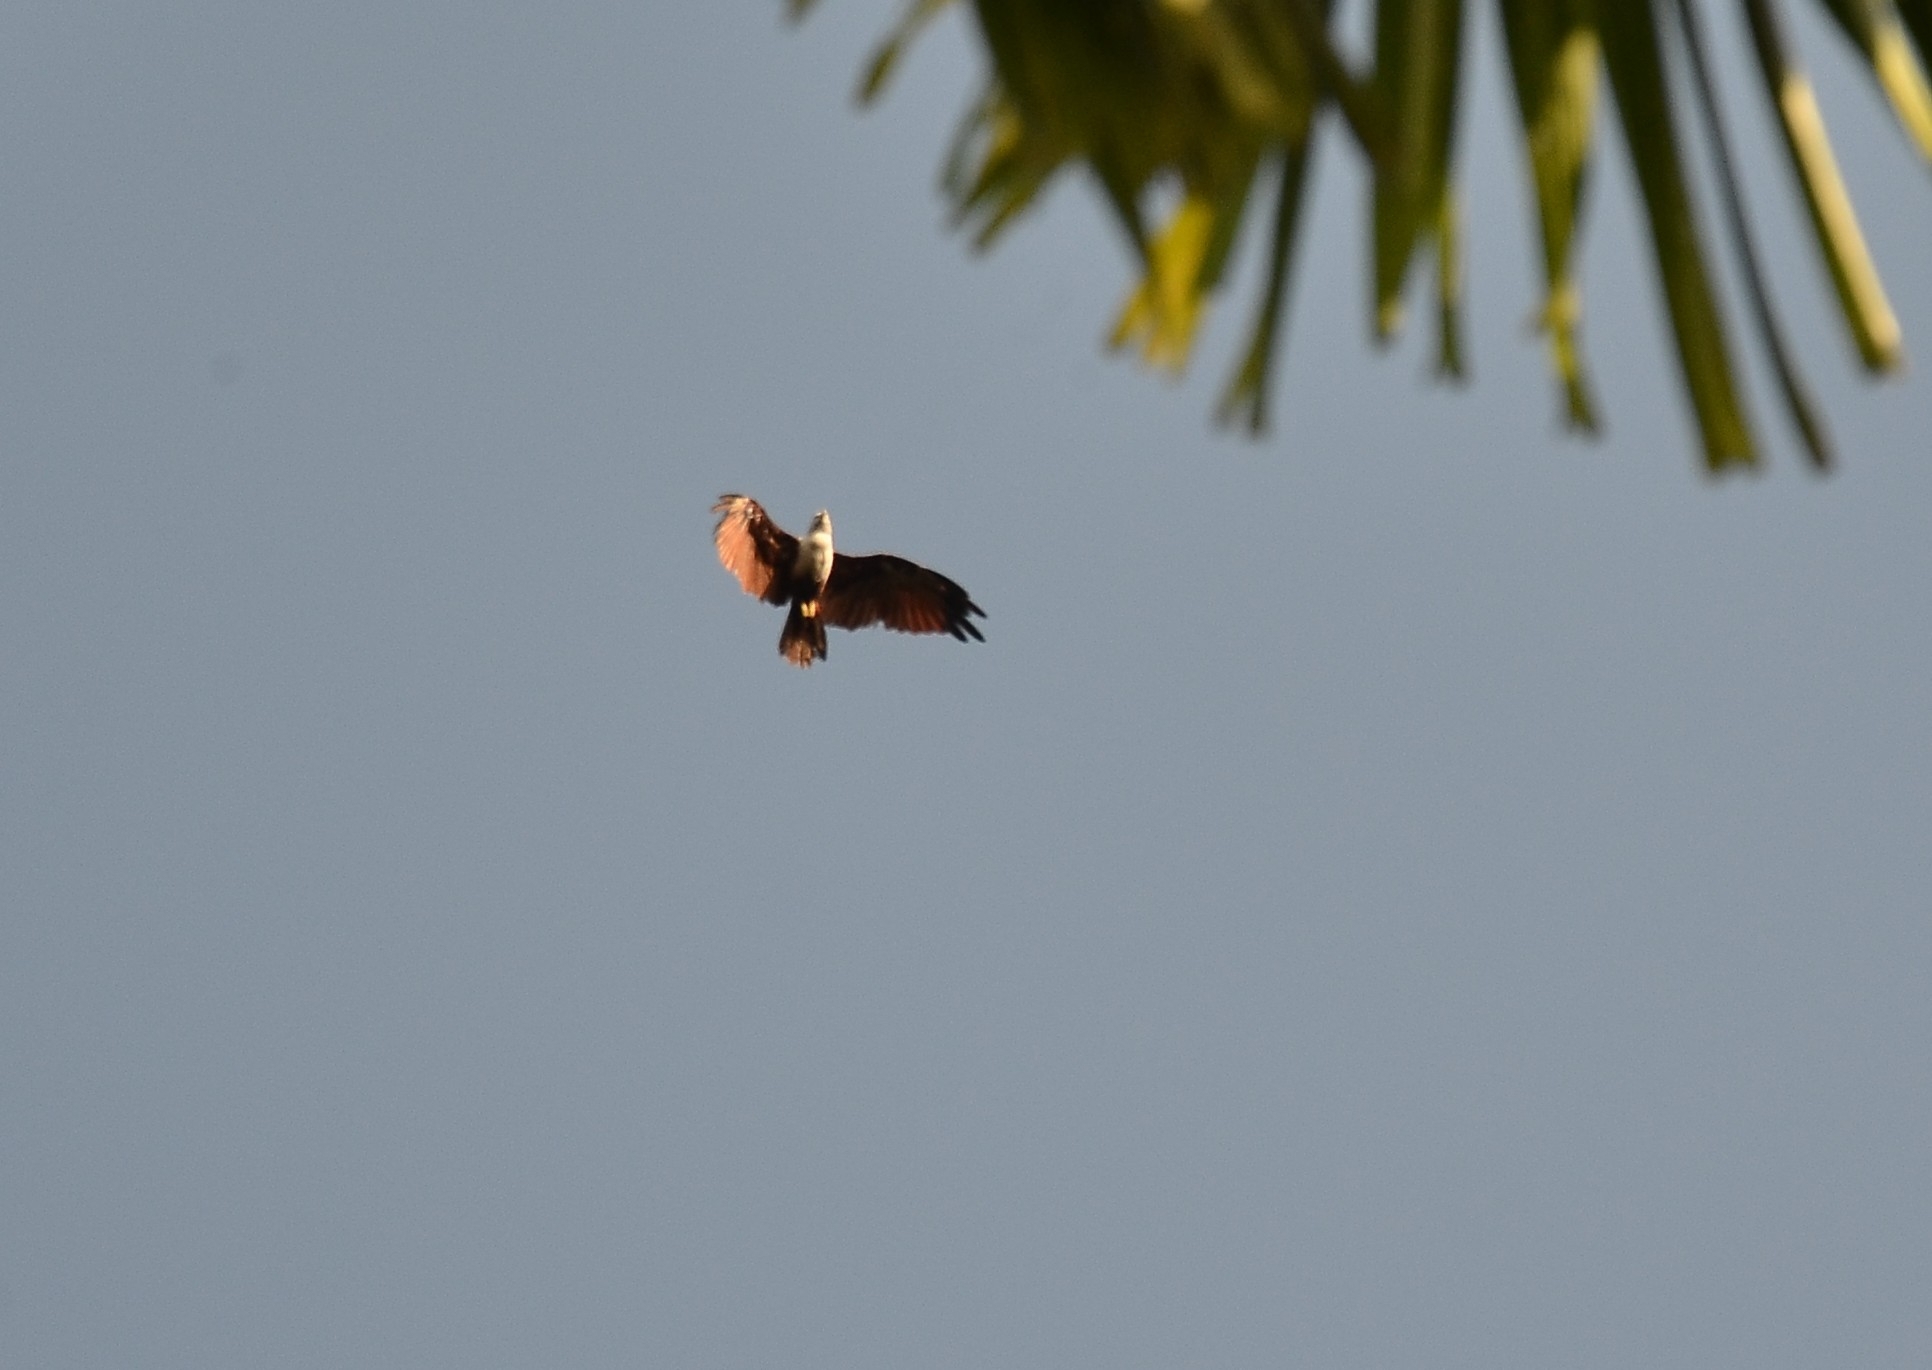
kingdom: Animalia
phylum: Chordata
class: Aves
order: Accipitriformes
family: Accipitridae
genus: Haliastur
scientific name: Haliastur indus
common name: Brahminy kite
